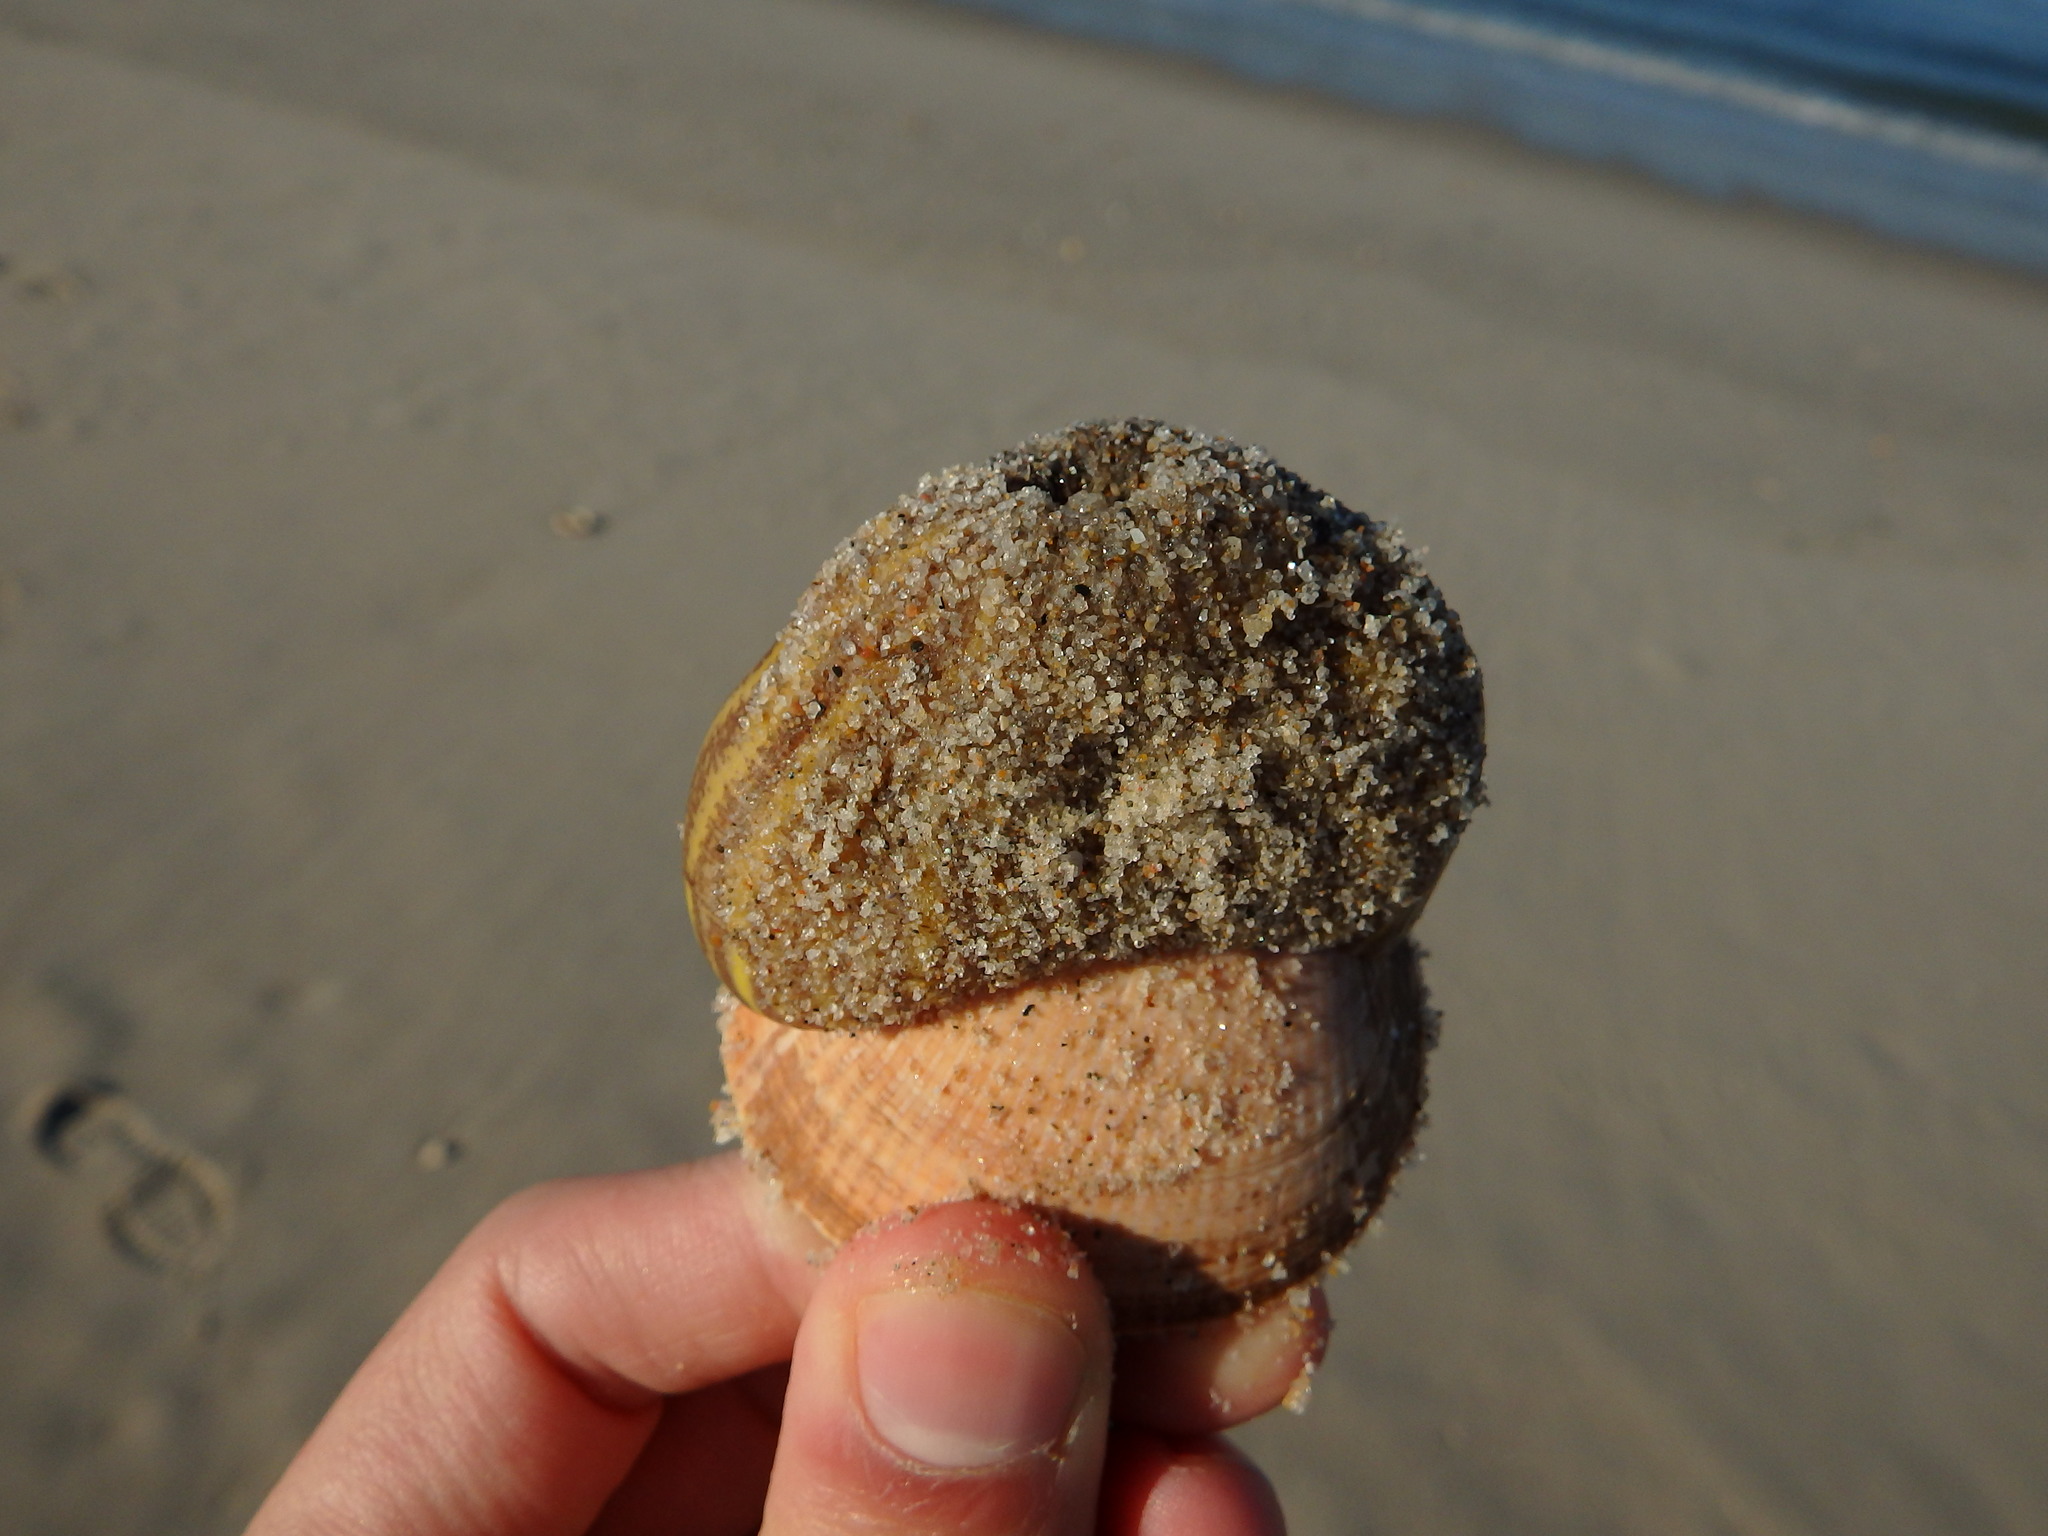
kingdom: Animalia
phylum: Cnidaria
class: Anthozoa
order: Actiniaria
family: Hormathiidae
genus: Calliactis
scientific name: Calliactis parasitica
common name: Parasitic anemone
